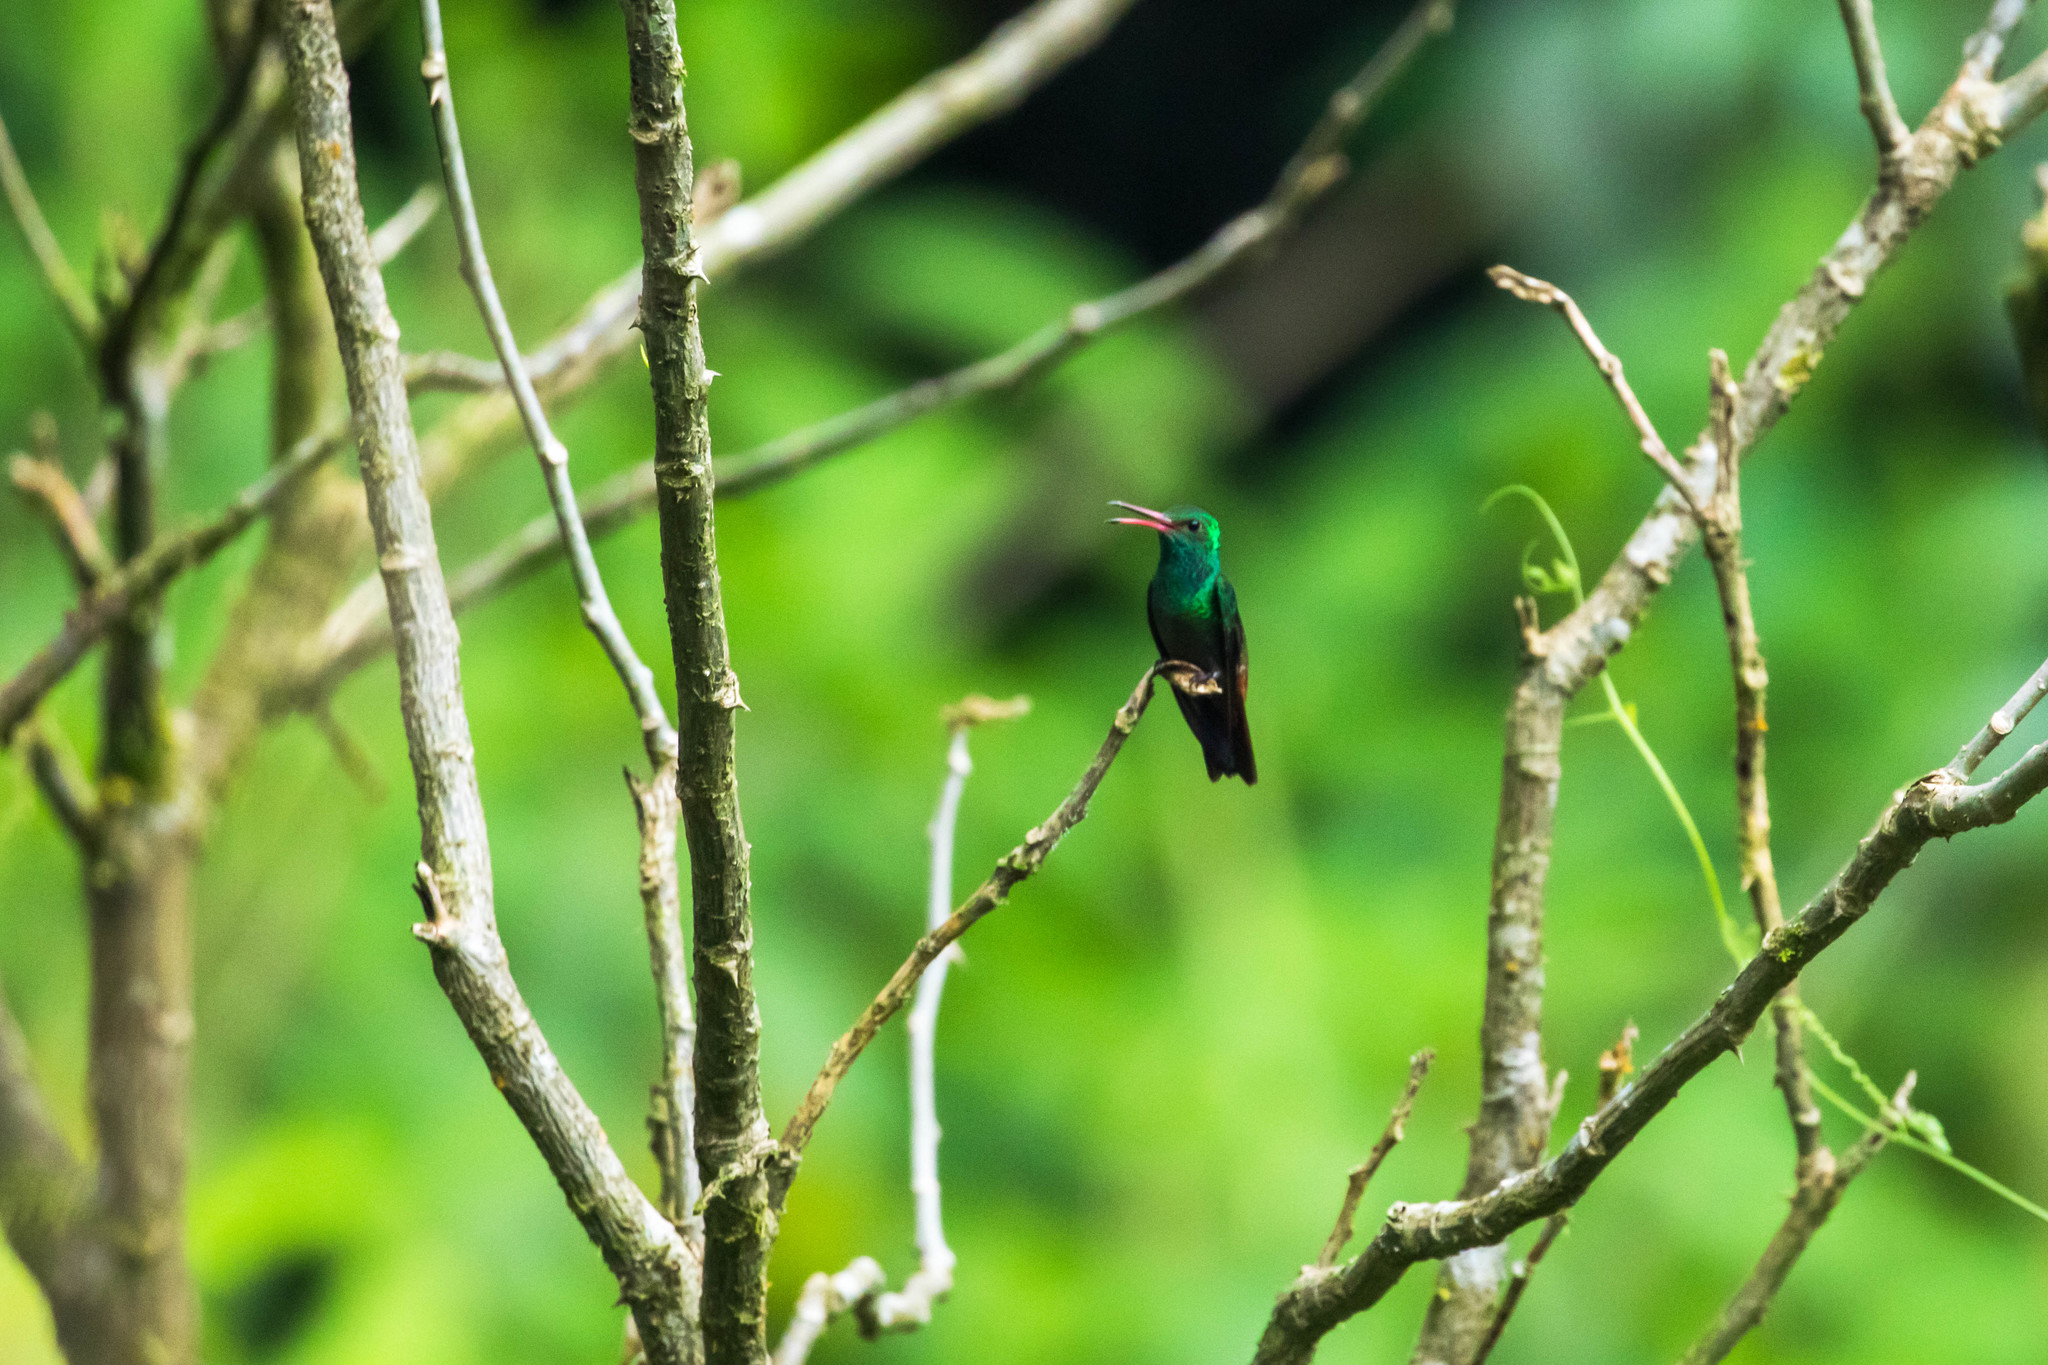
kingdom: Animalia
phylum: Chordata
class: Aves
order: Apodiformes
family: Trochilidae
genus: Amazilia
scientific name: Amazilia tzacatl
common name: Rufous-tailed hummingbird
